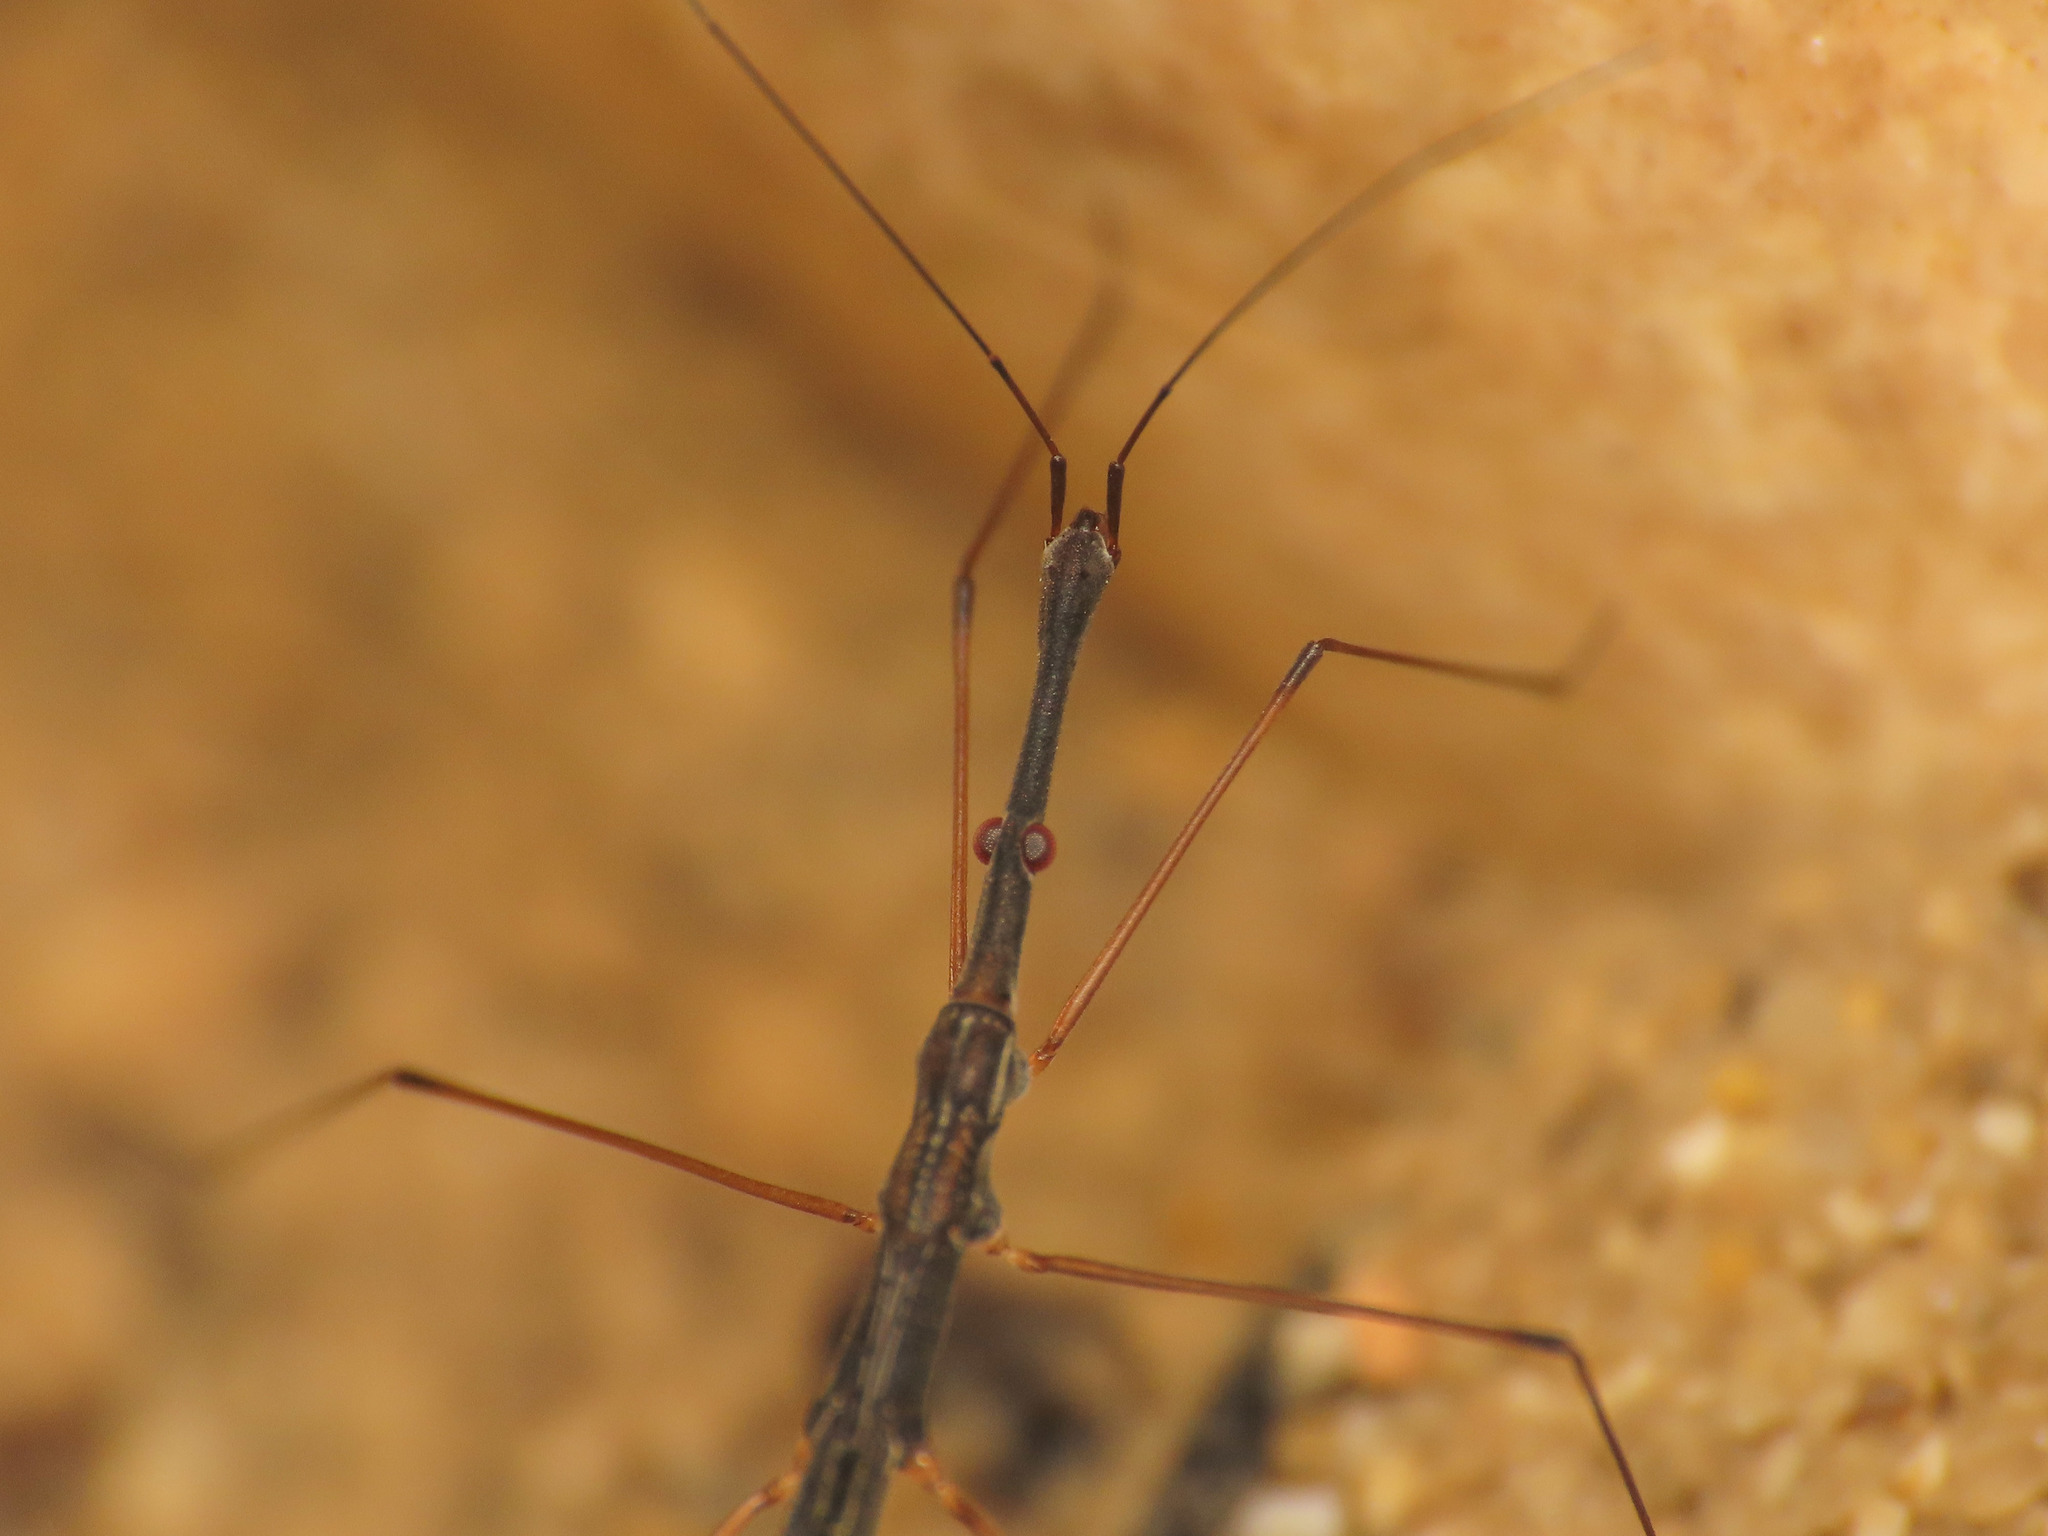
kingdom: Animalia
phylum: Arthropoda
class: Insecta
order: Hemiptera
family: Hydrometridae
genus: Hydrometra
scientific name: Hydrometra stagnorum
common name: Water measurer
